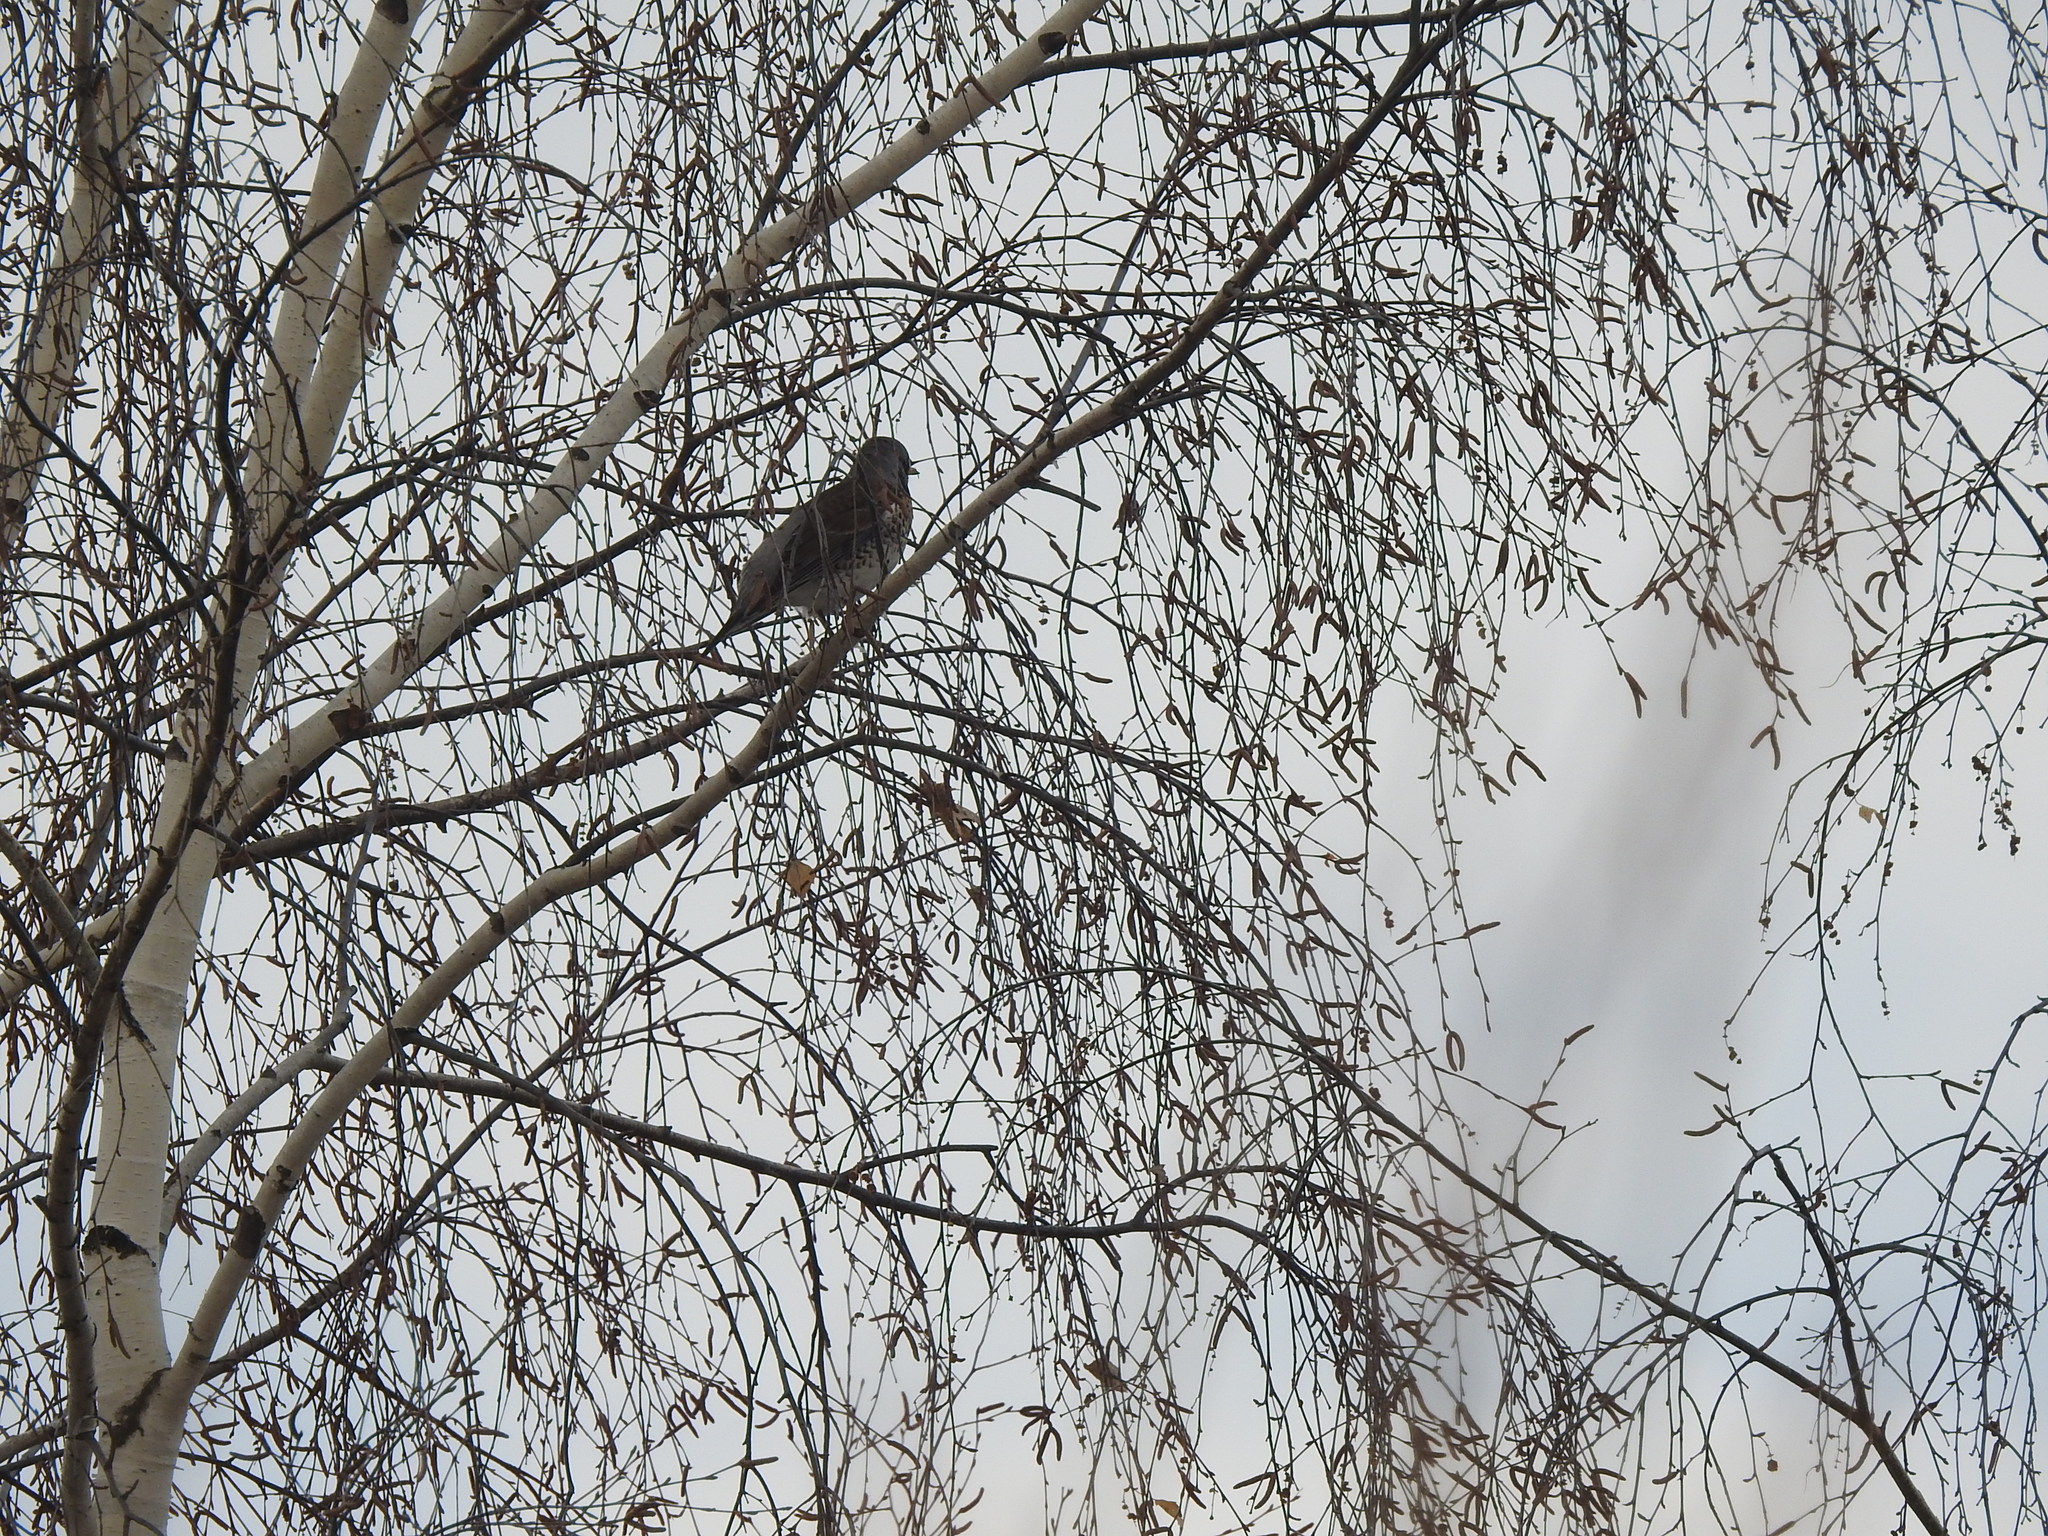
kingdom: Animalia
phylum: Chordata
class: Aves
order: Passeriformes
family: Turdidae
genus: Turdus
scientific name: Turdus pilaris
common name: Fieldfare
